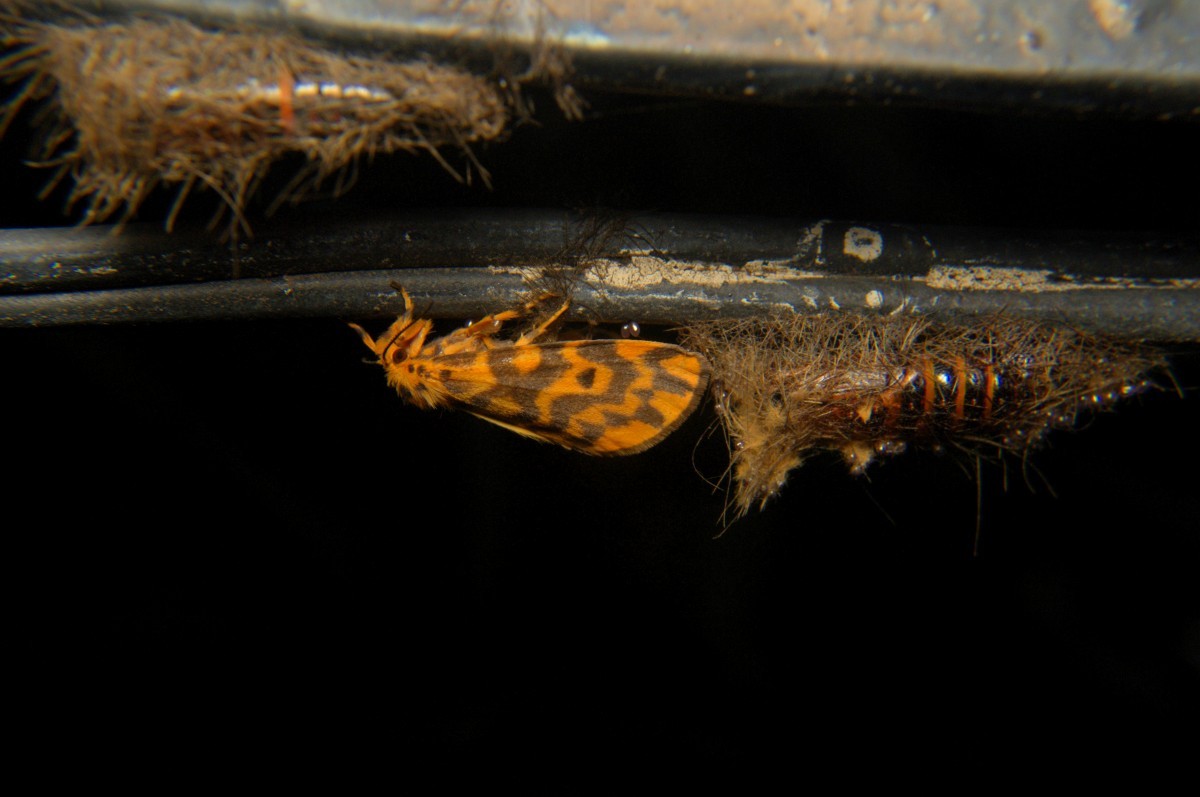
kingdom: Animalia
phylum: Arthropoda
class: Insecta
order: Lepidoptera
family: Erebidae
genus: Nepita
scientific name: Nepita conferta
